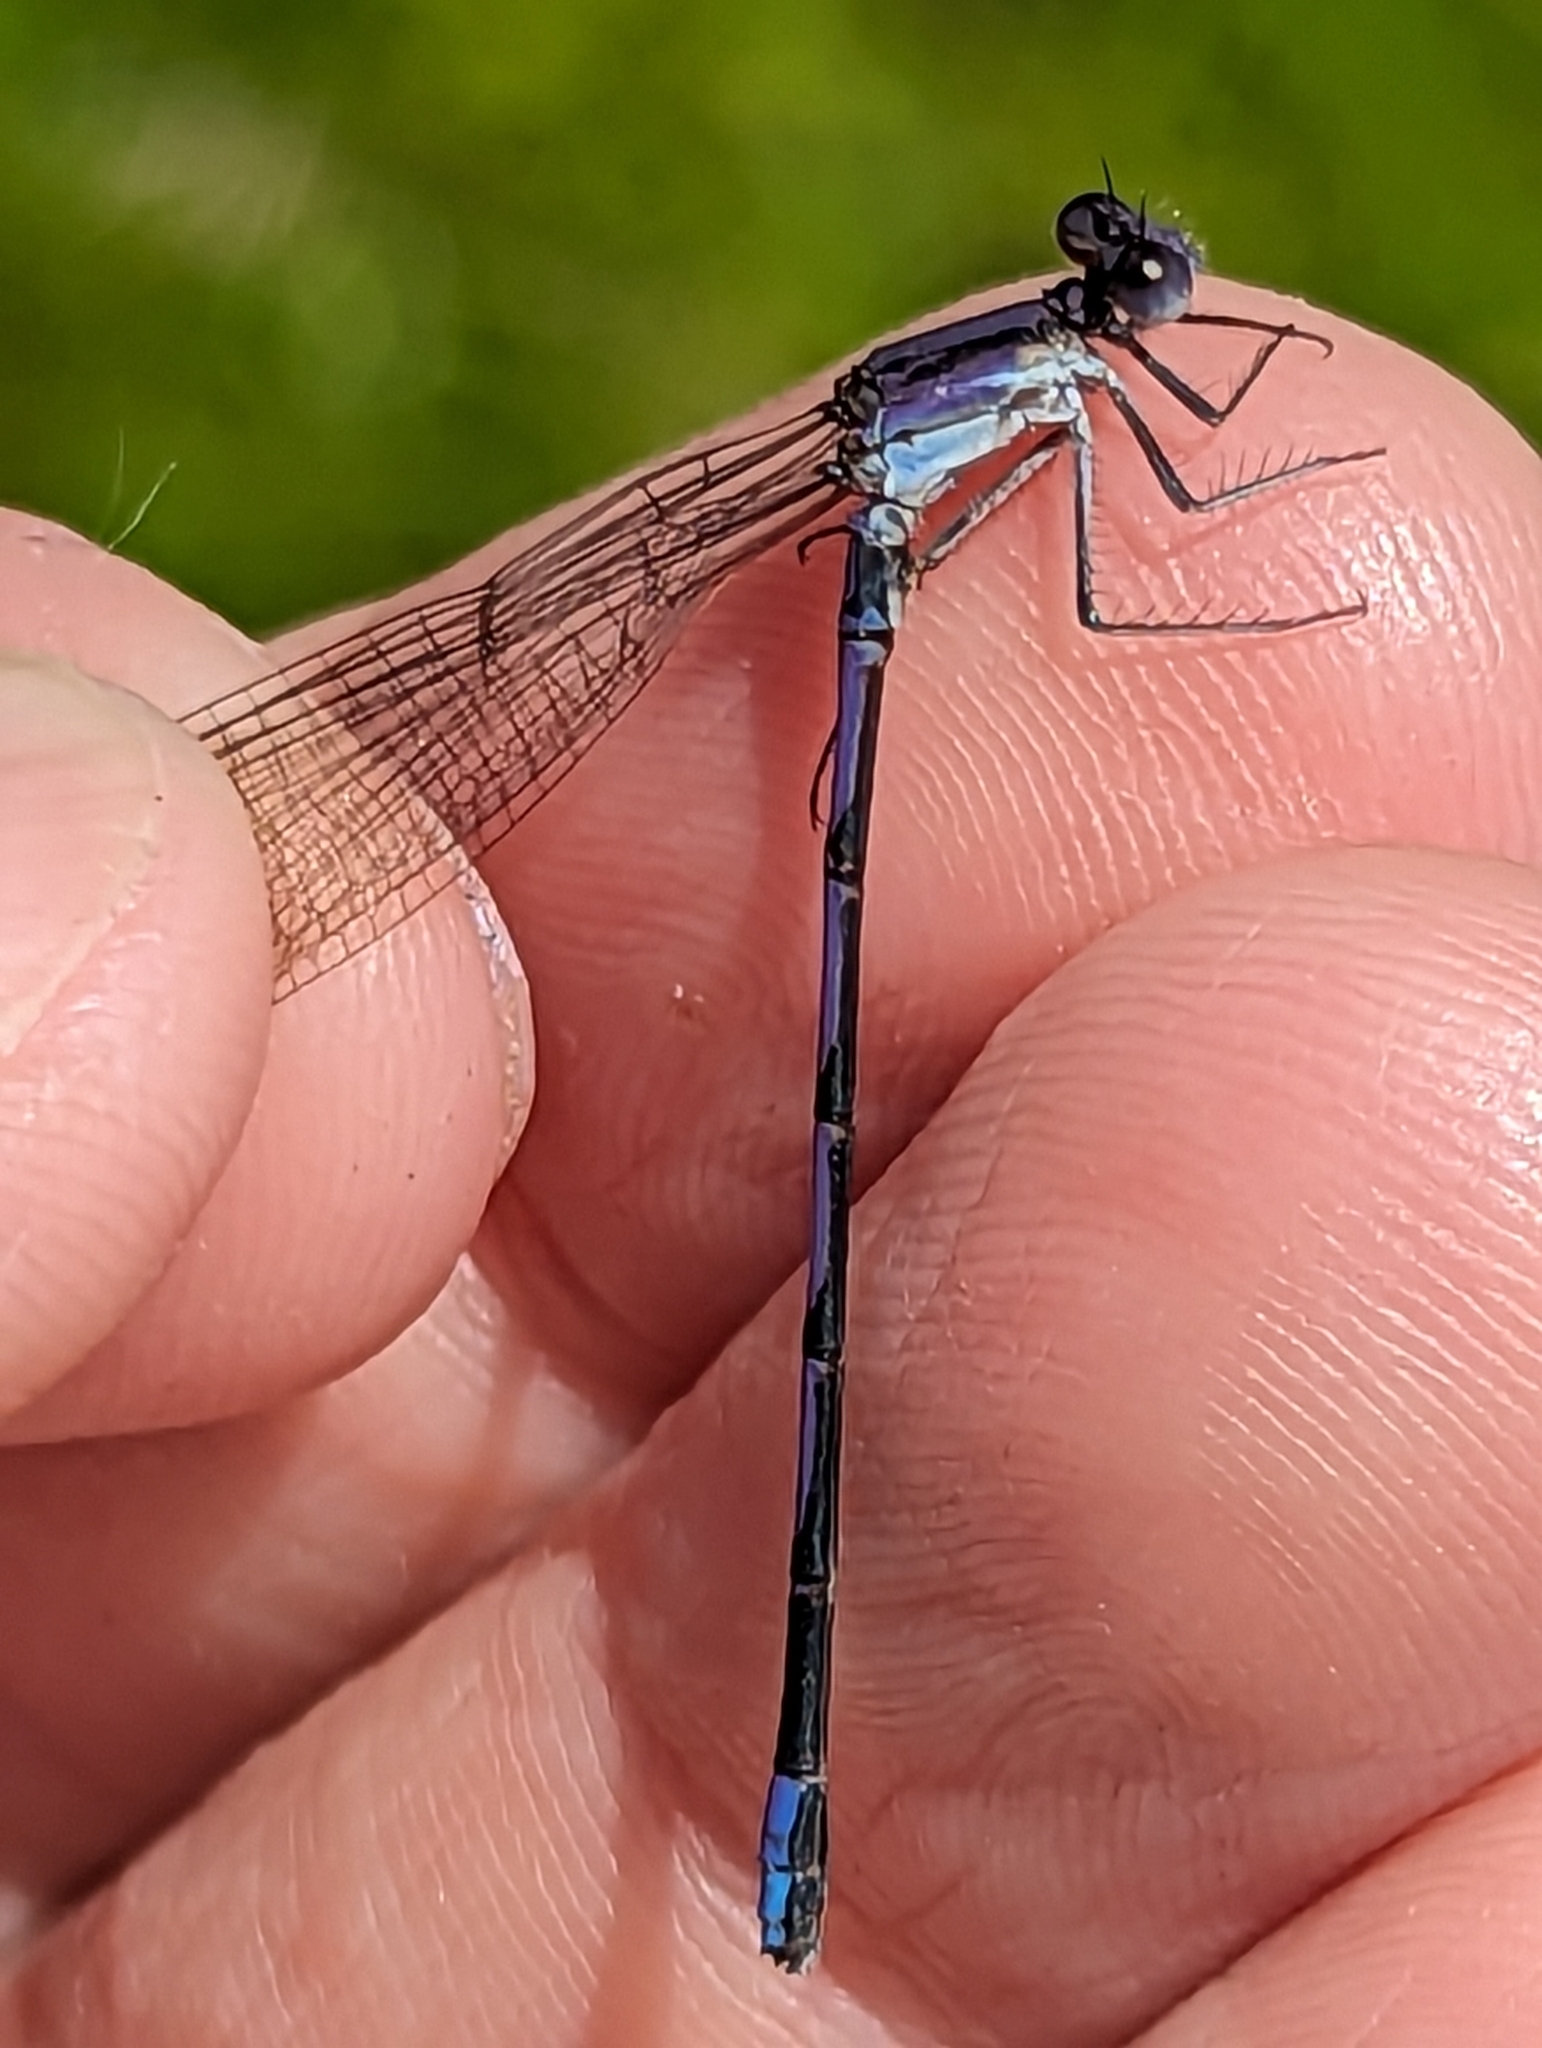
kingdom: Animalia
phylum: Arthropoda
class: Insecta
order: Odonata
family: Coenagrionidae
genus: Argia
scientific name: Argia fumipennis
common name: Variable dancer
